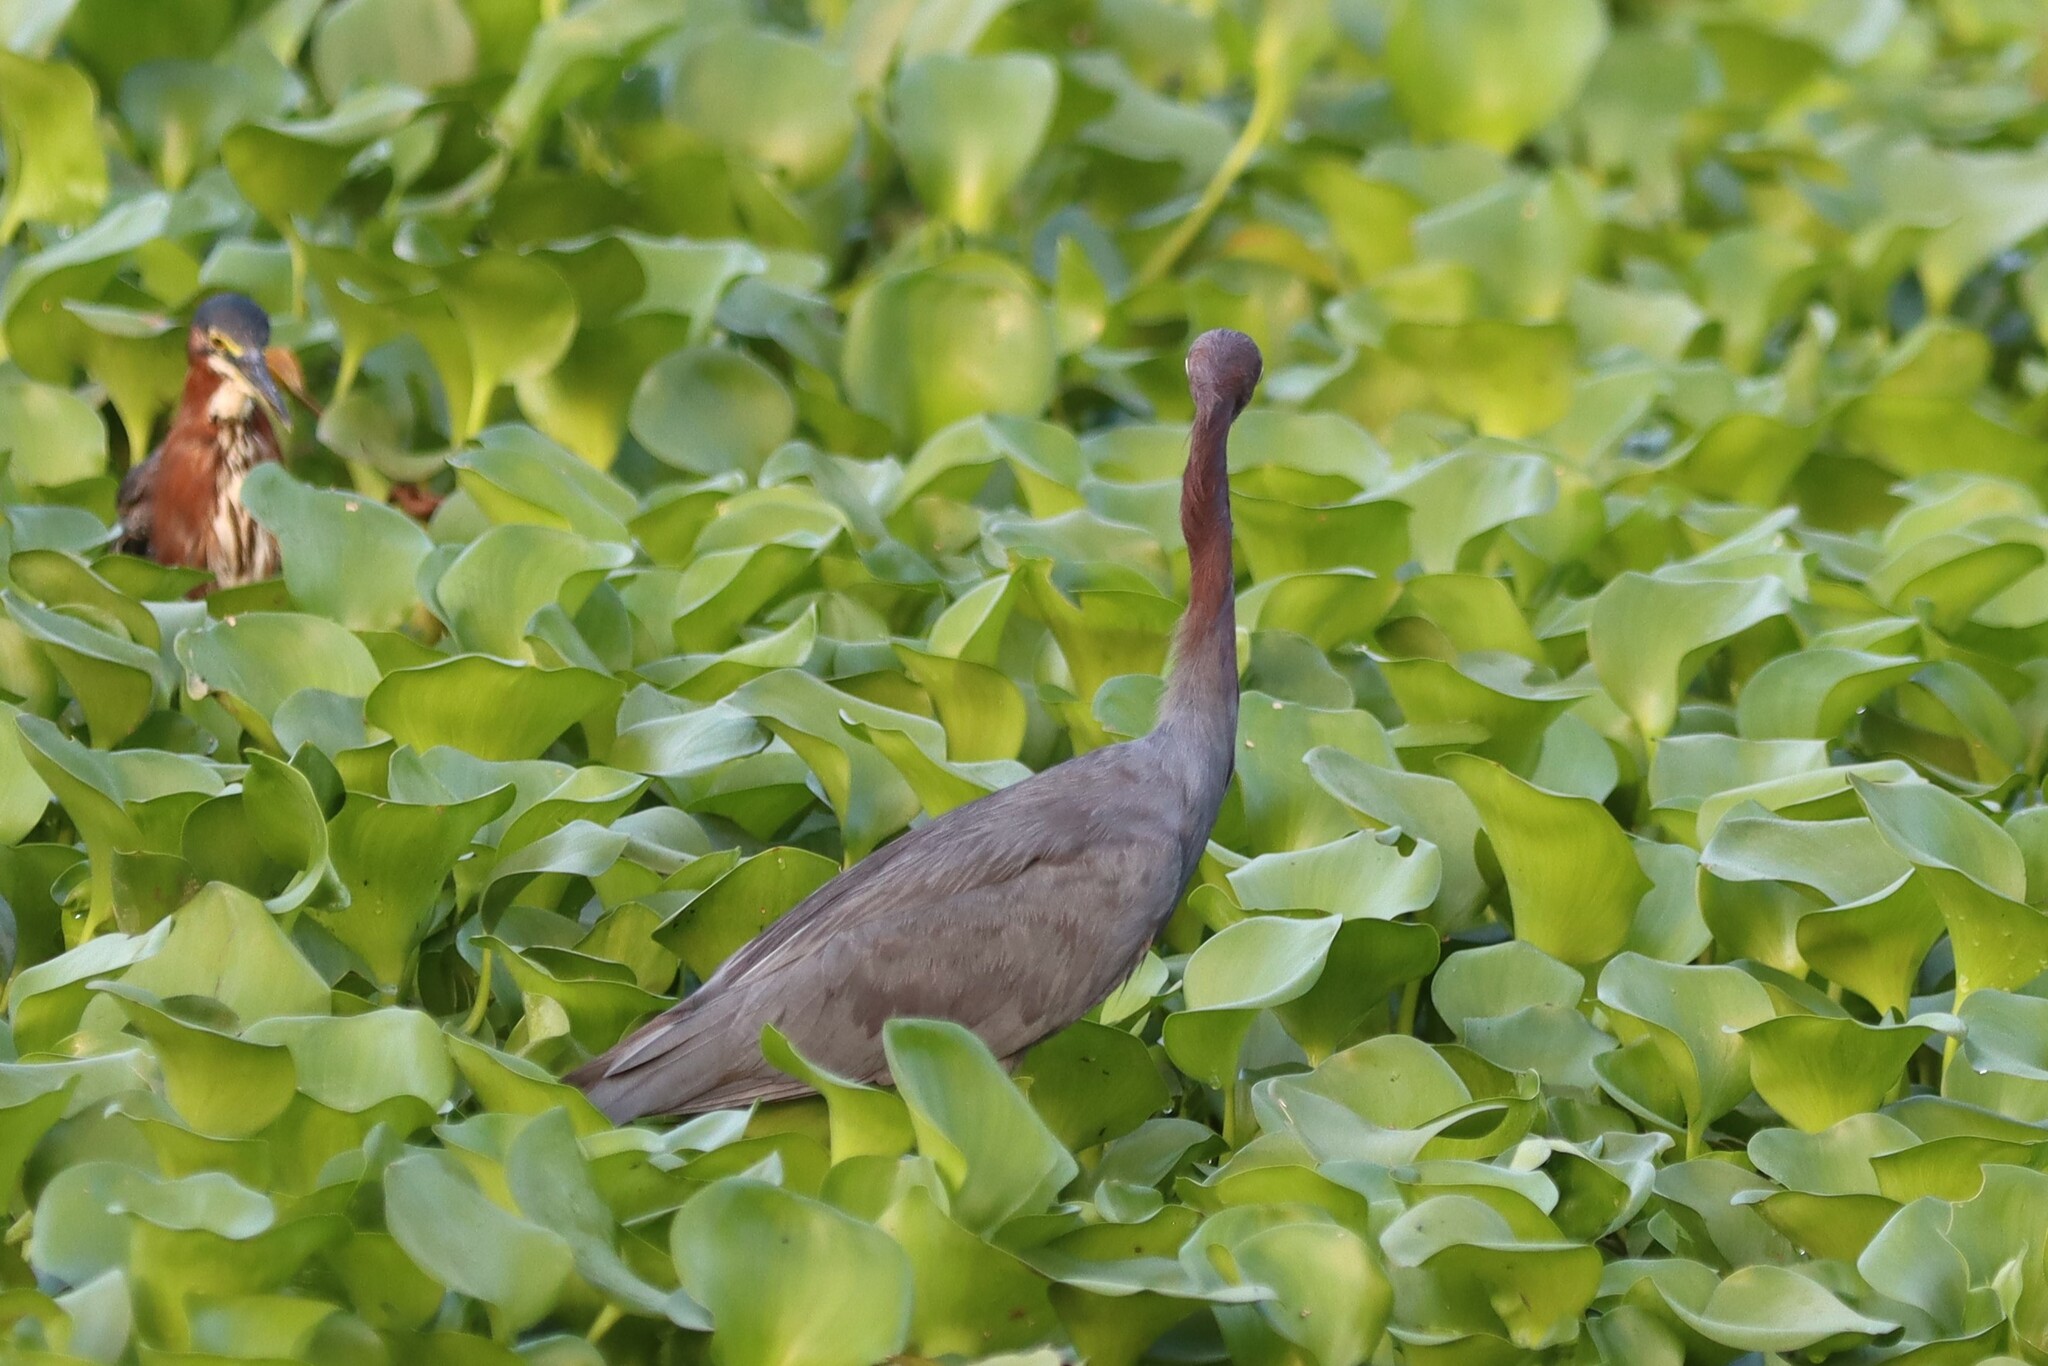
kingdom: Animalia
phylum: Chordata
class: Aves
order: Pelecaniformes
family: Ardeidae
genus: Egretta
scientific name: Egretta caerulea
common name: Little blue heron
